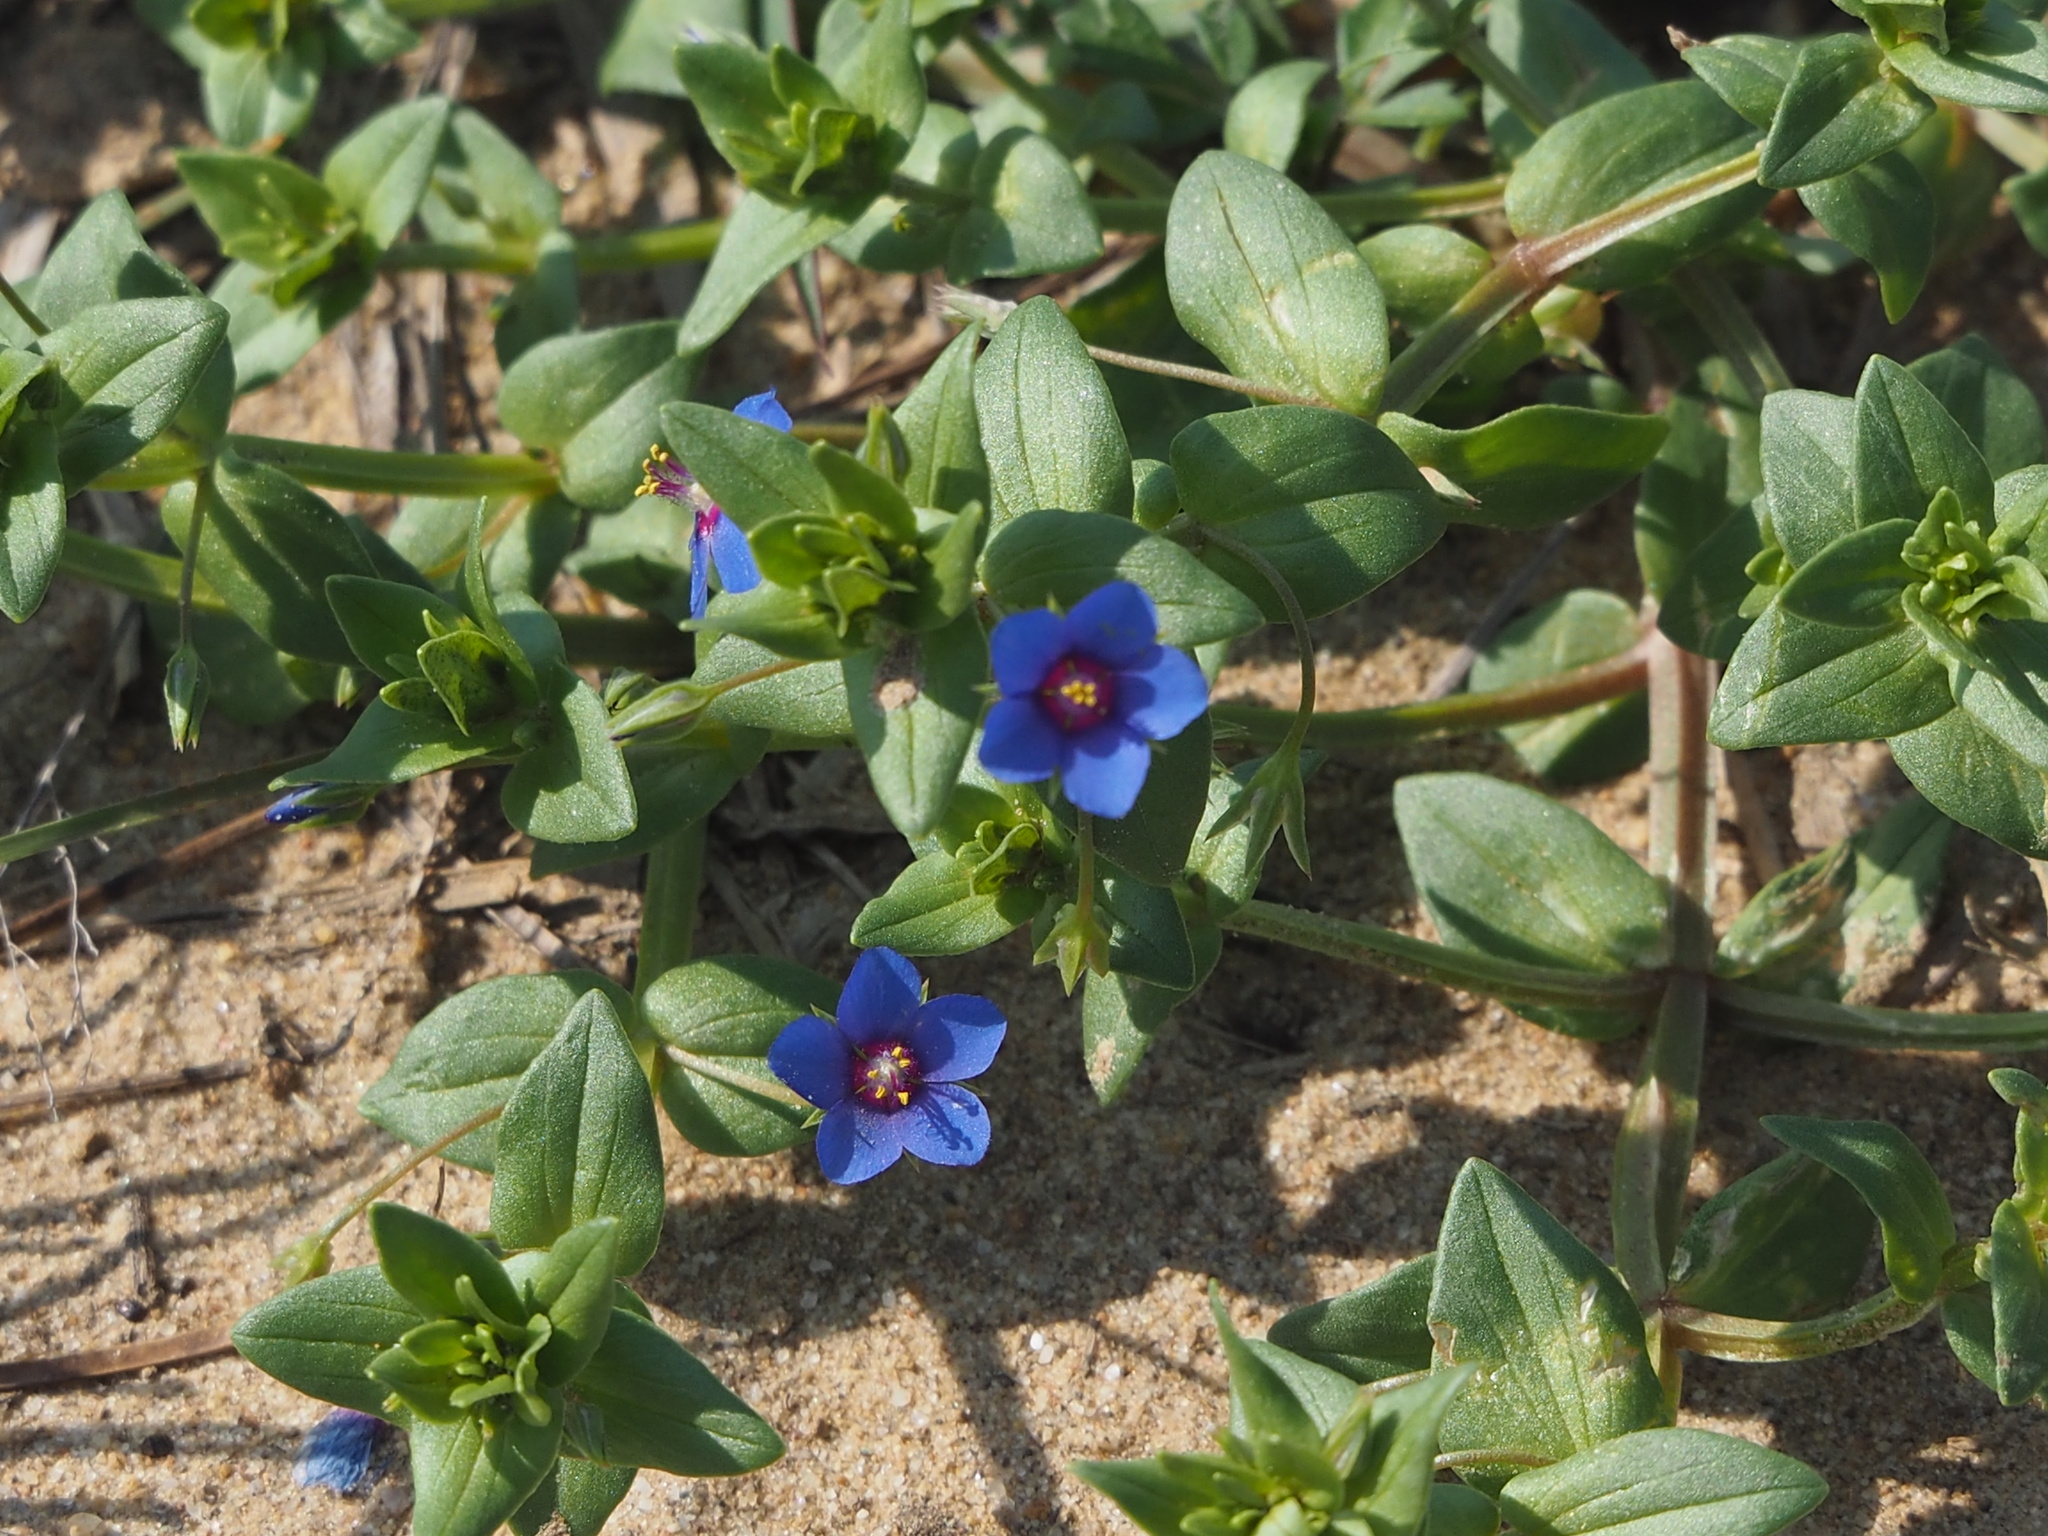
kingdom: Plantae
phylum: Tracheophyta
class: Magnoliopsida
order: Ericales
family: Primulaceae
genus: Lysimachia
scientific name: Lysimachia loeflingii
